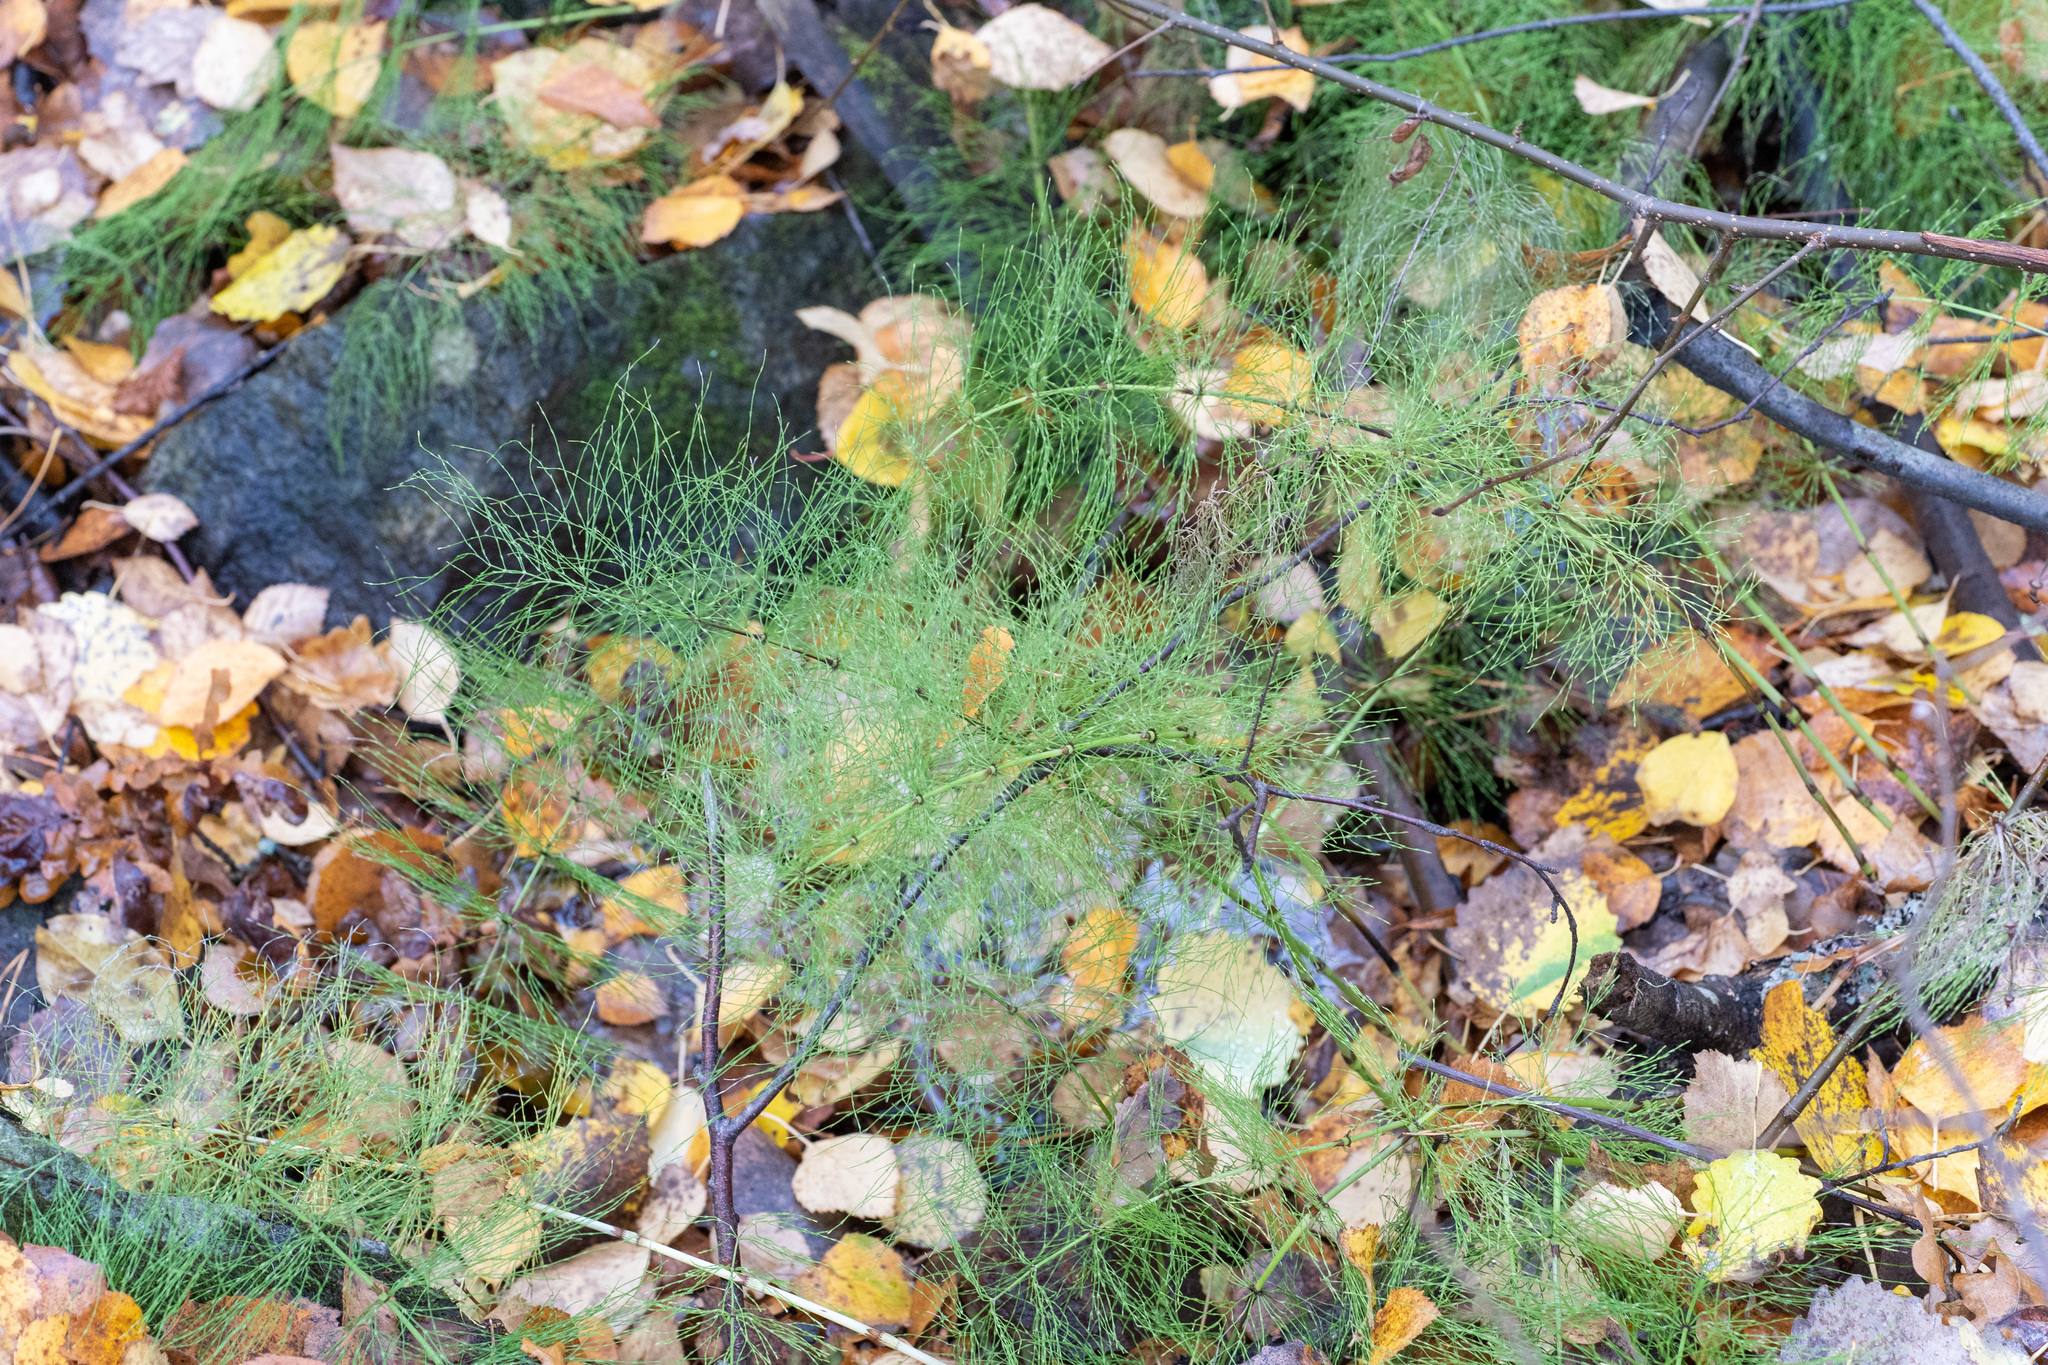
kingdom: Plantae
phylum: Tracheophyta
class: Polypodiopsida
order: Equisetales
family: Equisetaceae
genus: Equisetum
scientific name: Equisetum sylvaticum
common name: Wood horsetail
